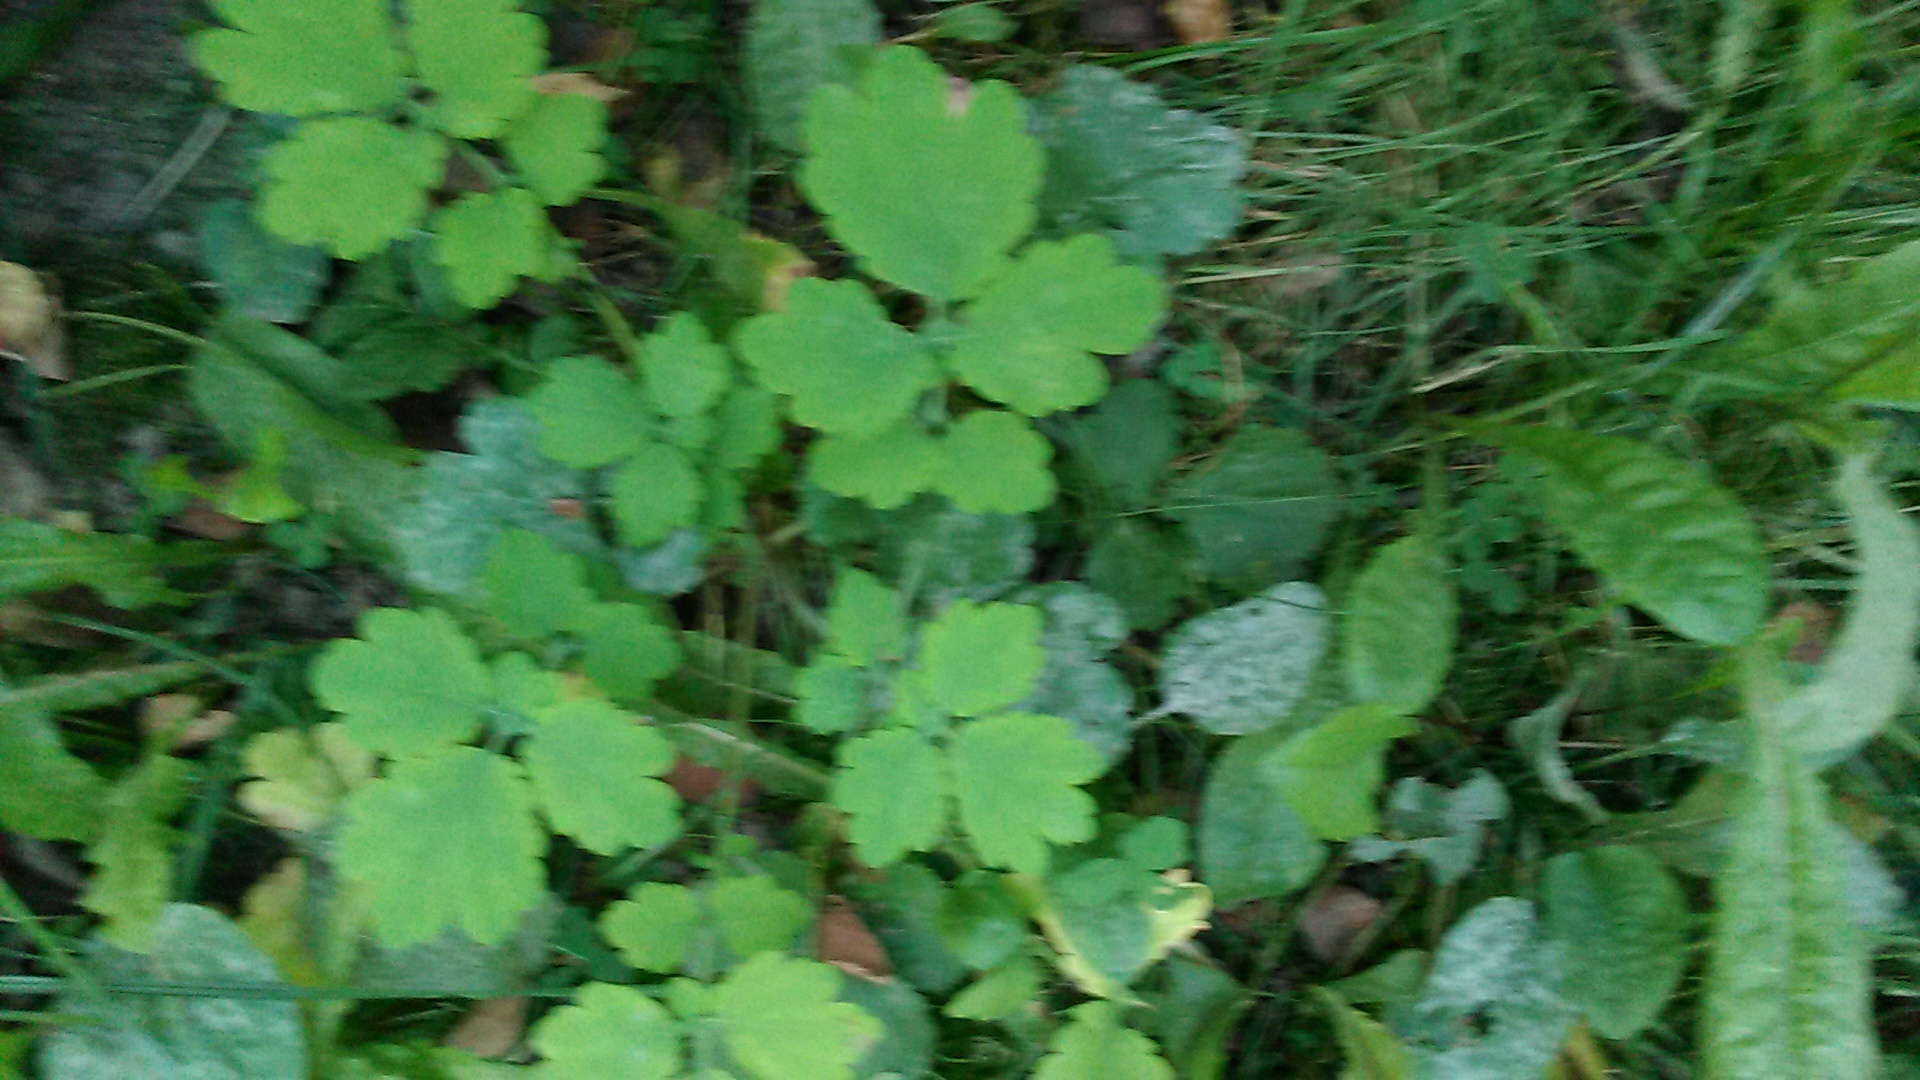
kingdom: Plantae
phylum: Tracheophyta
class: Magnoliopsida
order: Ranunculales
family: Papaveraceae
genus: Chelidonium
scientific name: Chelidonium majus
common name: Greater celandine
